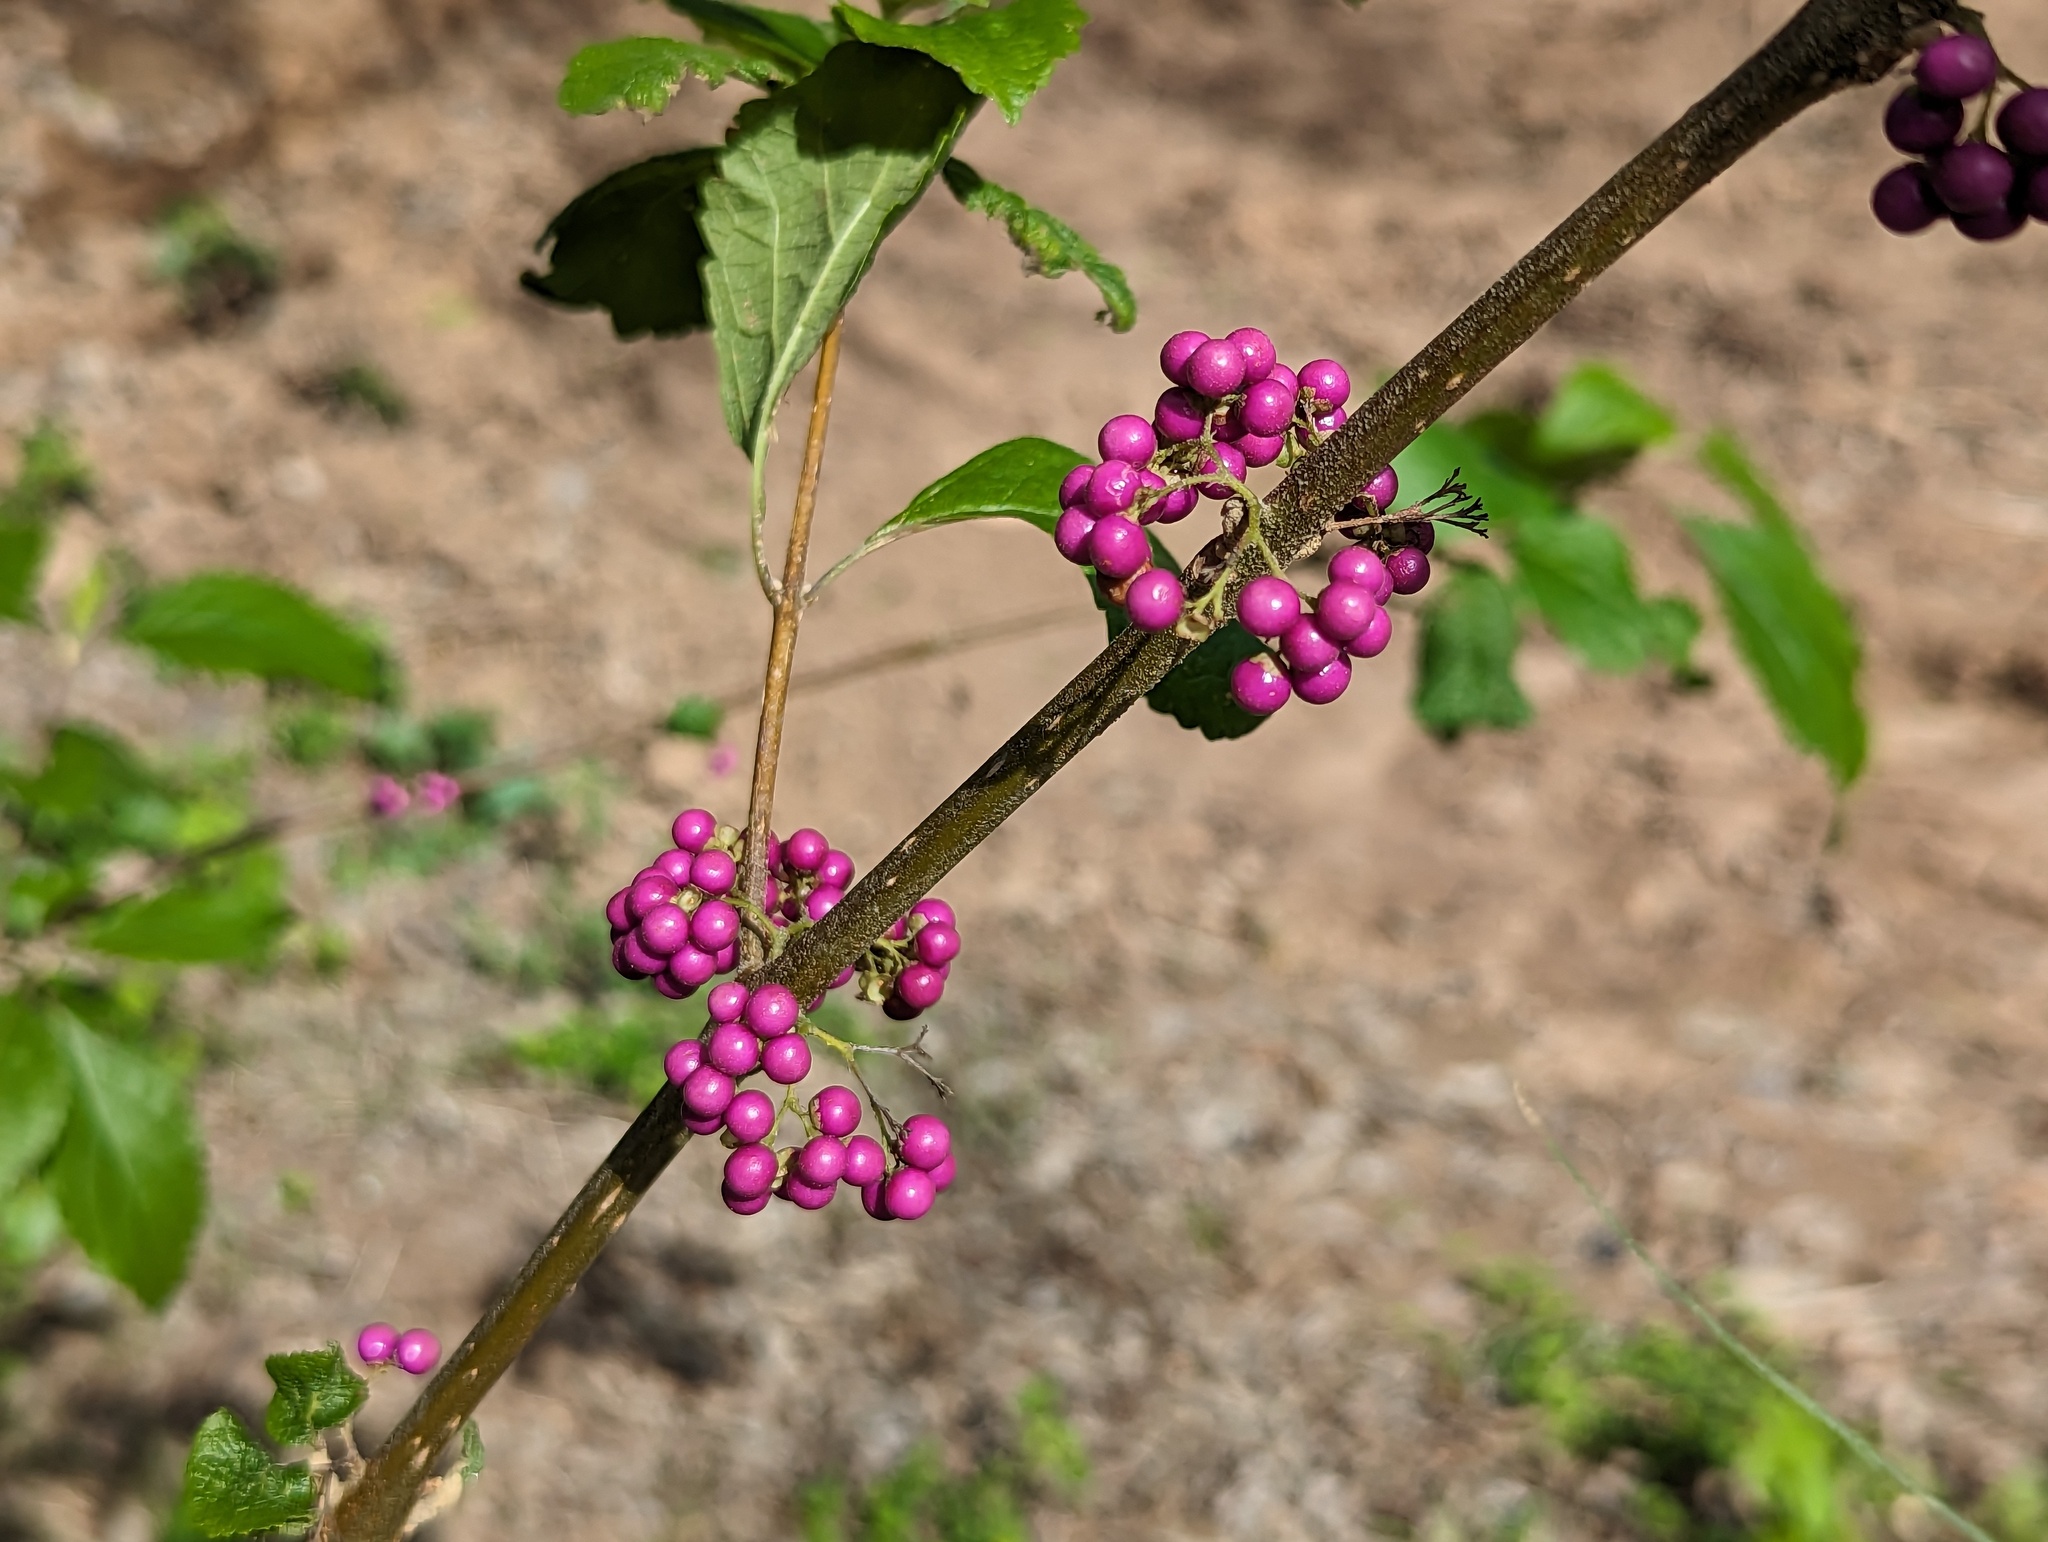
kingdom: Plantae
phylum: Tracheophyta
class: Magnoliopsida
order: Lamiales
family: Lamiaceae
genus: Callicarpa
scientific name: Callicarpa americana
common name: American beautyberry
